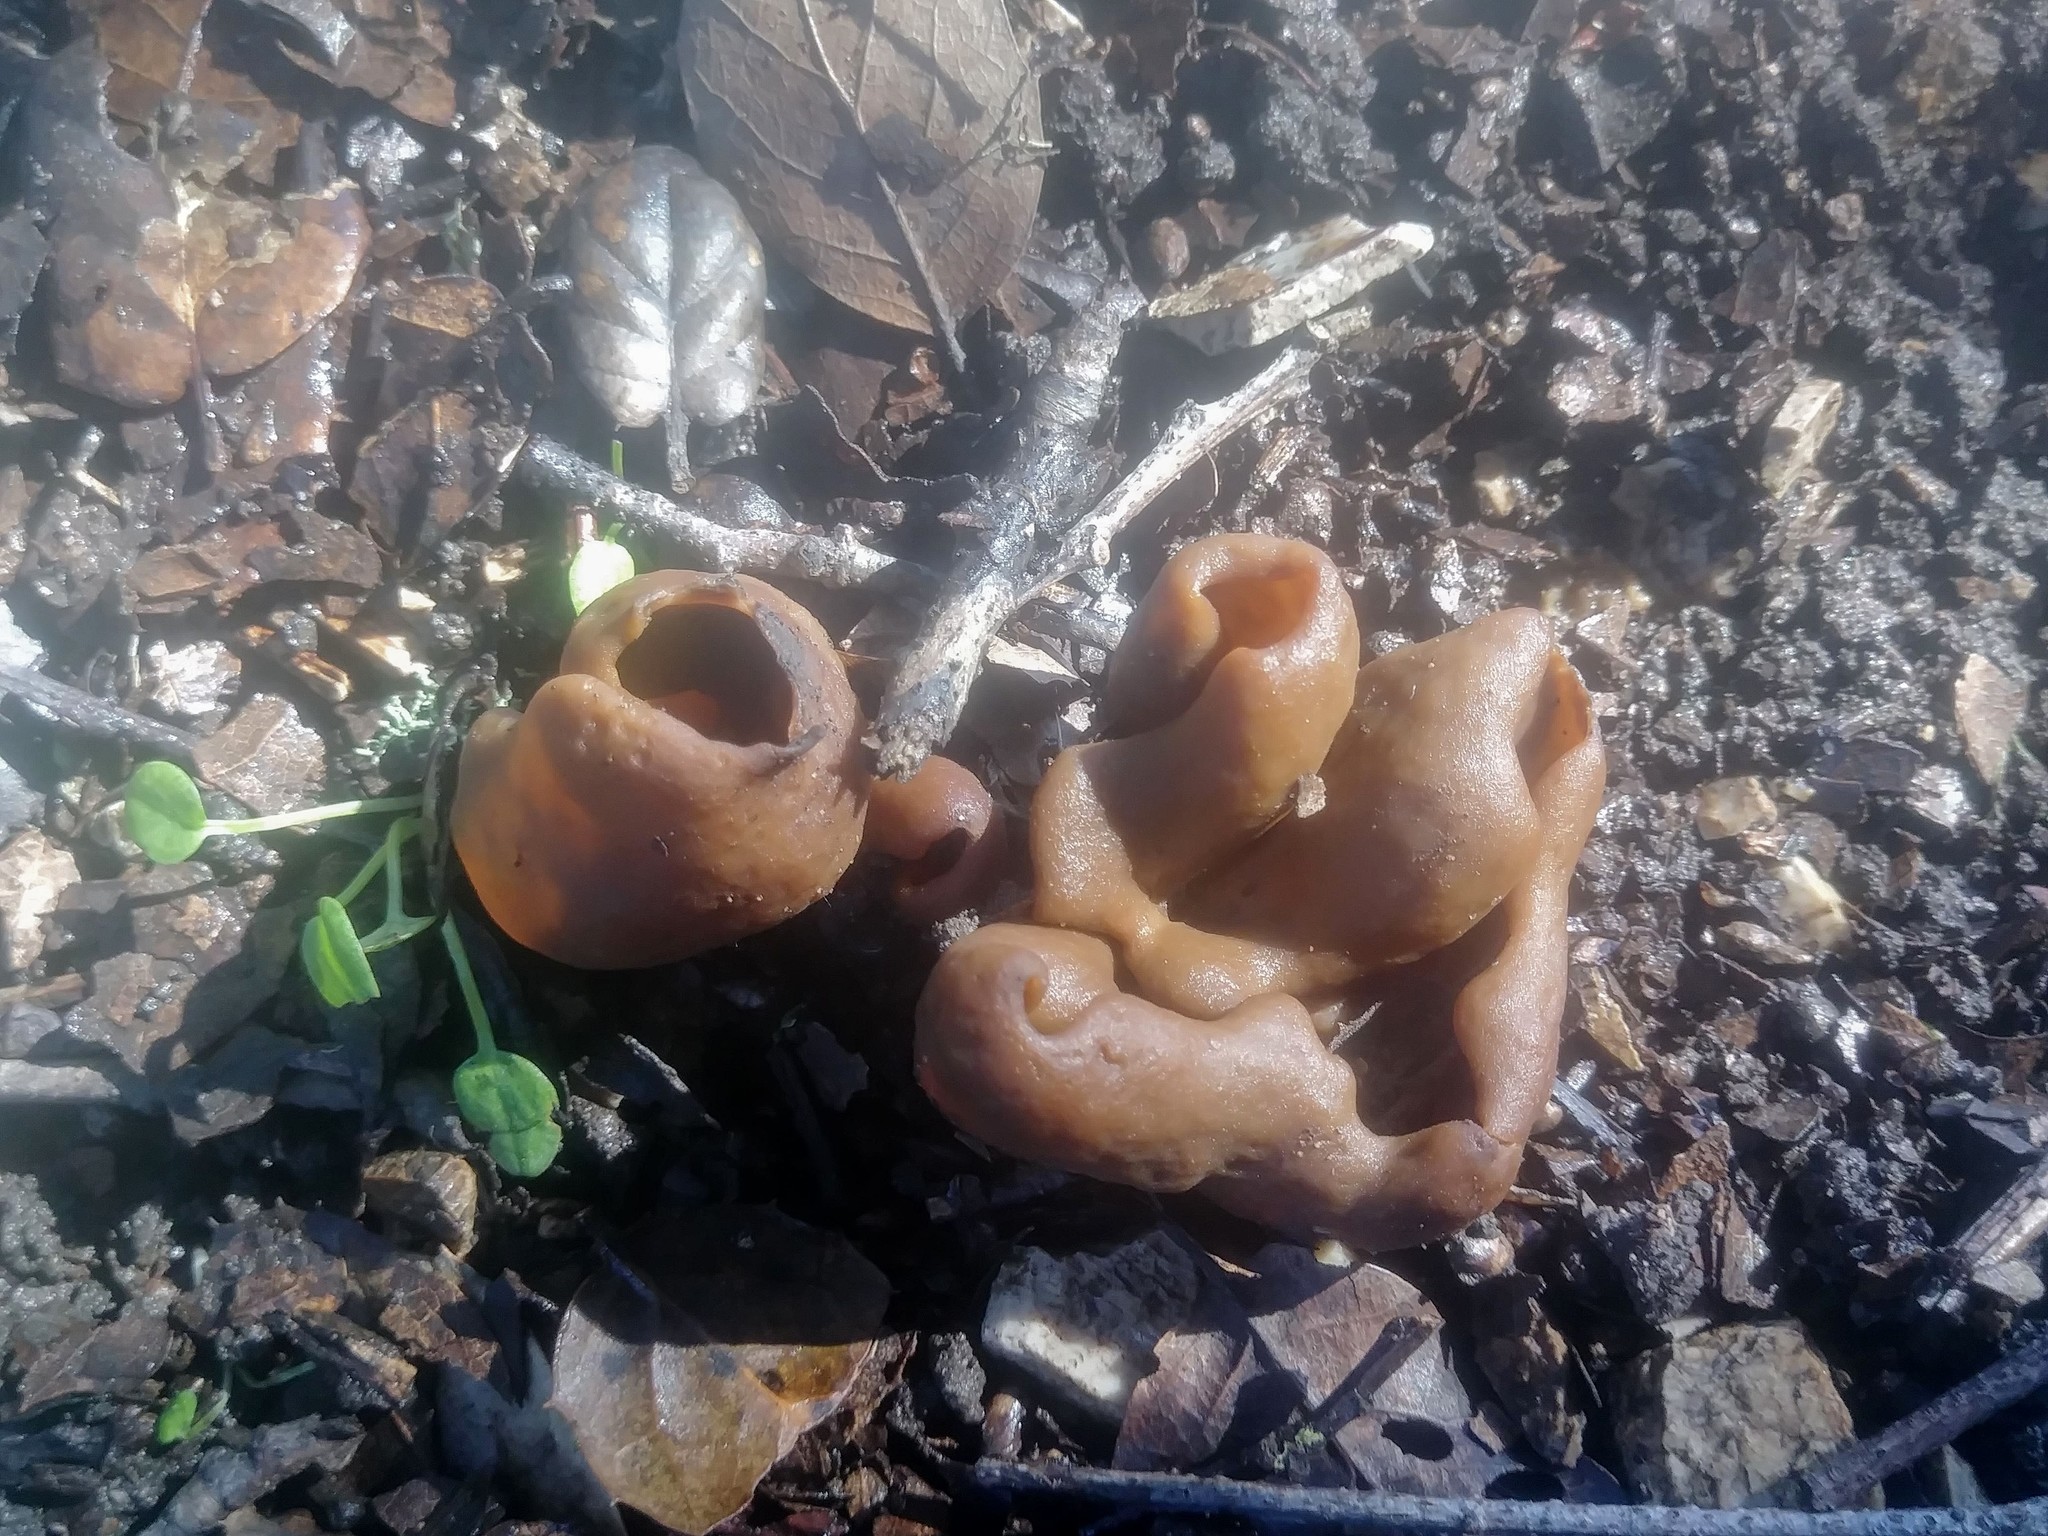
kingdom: Fungi
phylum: Ascomycota
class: Pezizomycetes
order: Pezizales
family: Pezizaceae
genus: Peziza
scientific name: Peziza varia
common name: Layered cup
